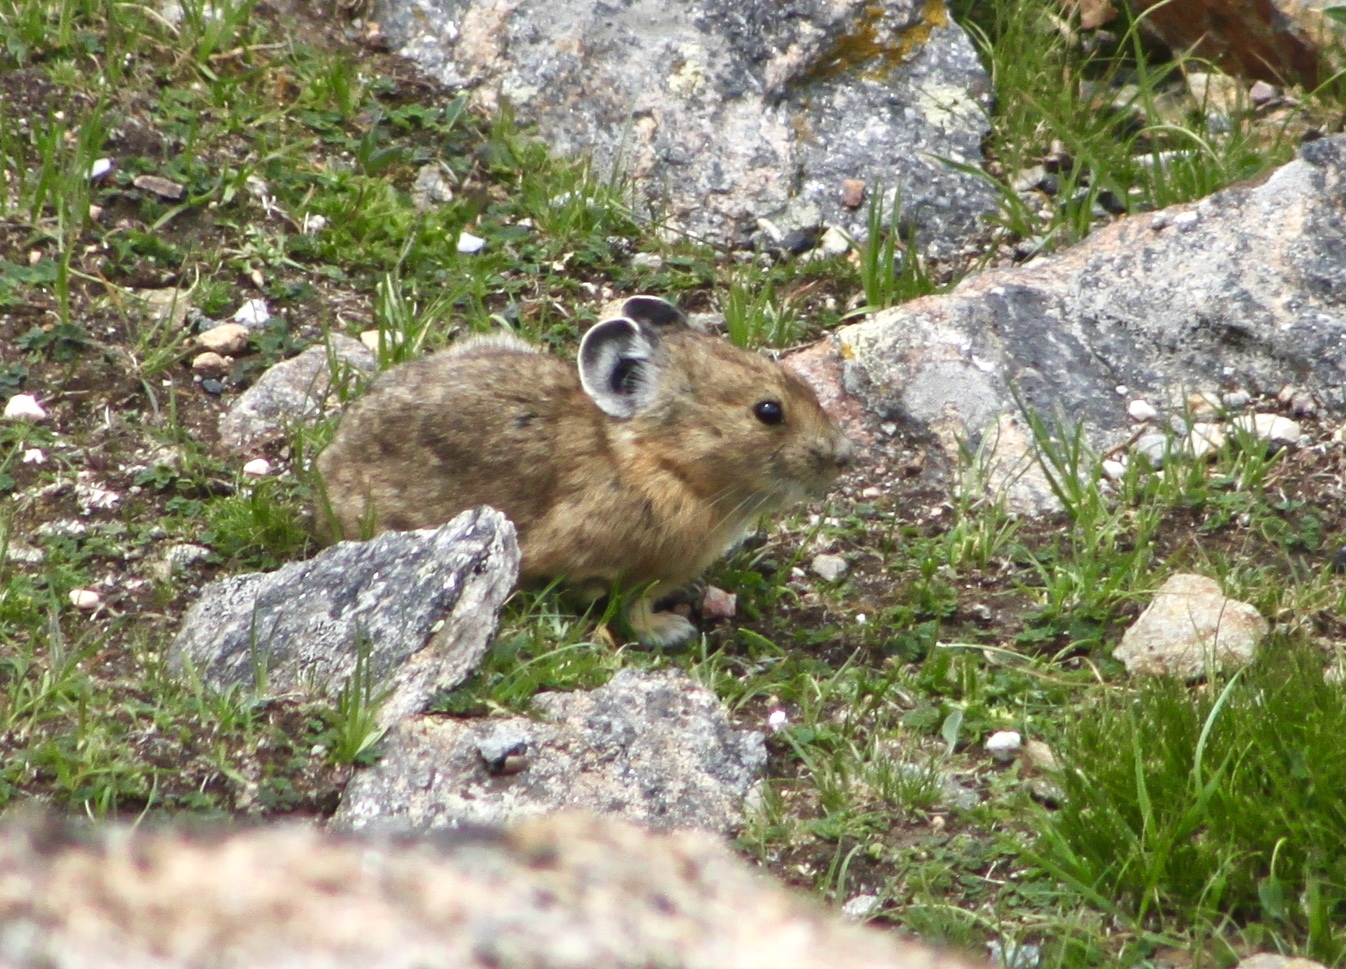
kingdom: Animalia
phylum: Chordata
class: Mammalia
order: Lagomorpha
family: Ochotonidae
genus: Ochotona
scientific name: Ochotona princeps
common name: American pika
